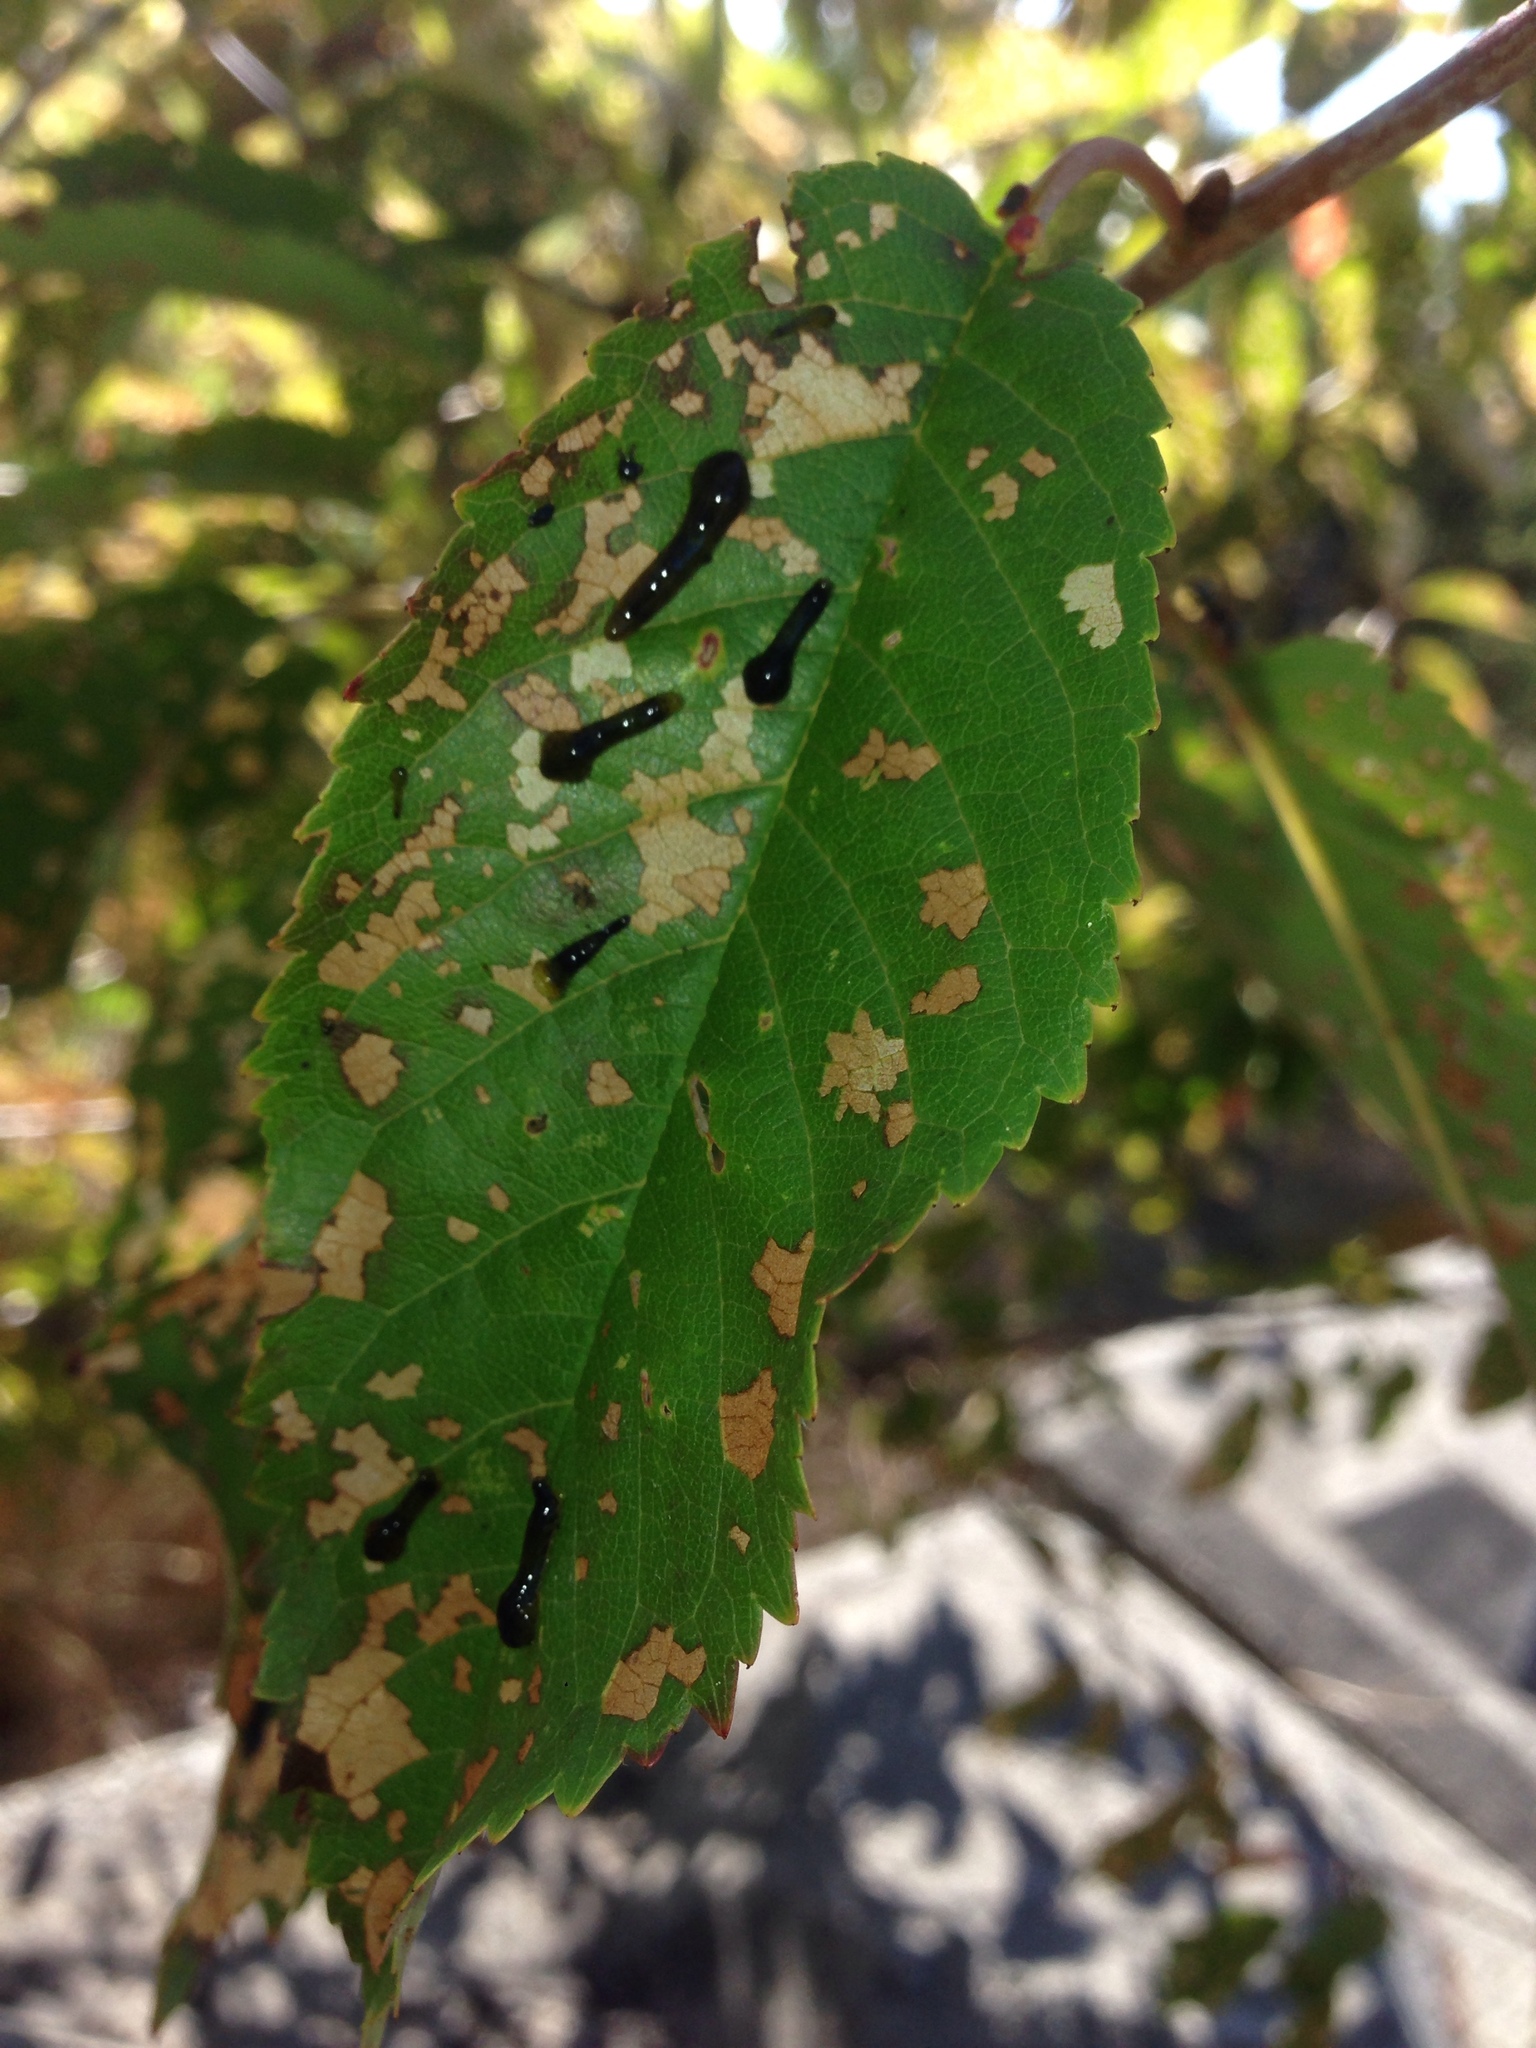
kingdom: Animalia
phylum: Arthropoda
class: Insecta
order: Hymenoptera
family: Tenthredinidae
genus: Caliroa
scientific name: Caliroa cerasi
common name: Pear sawfly
